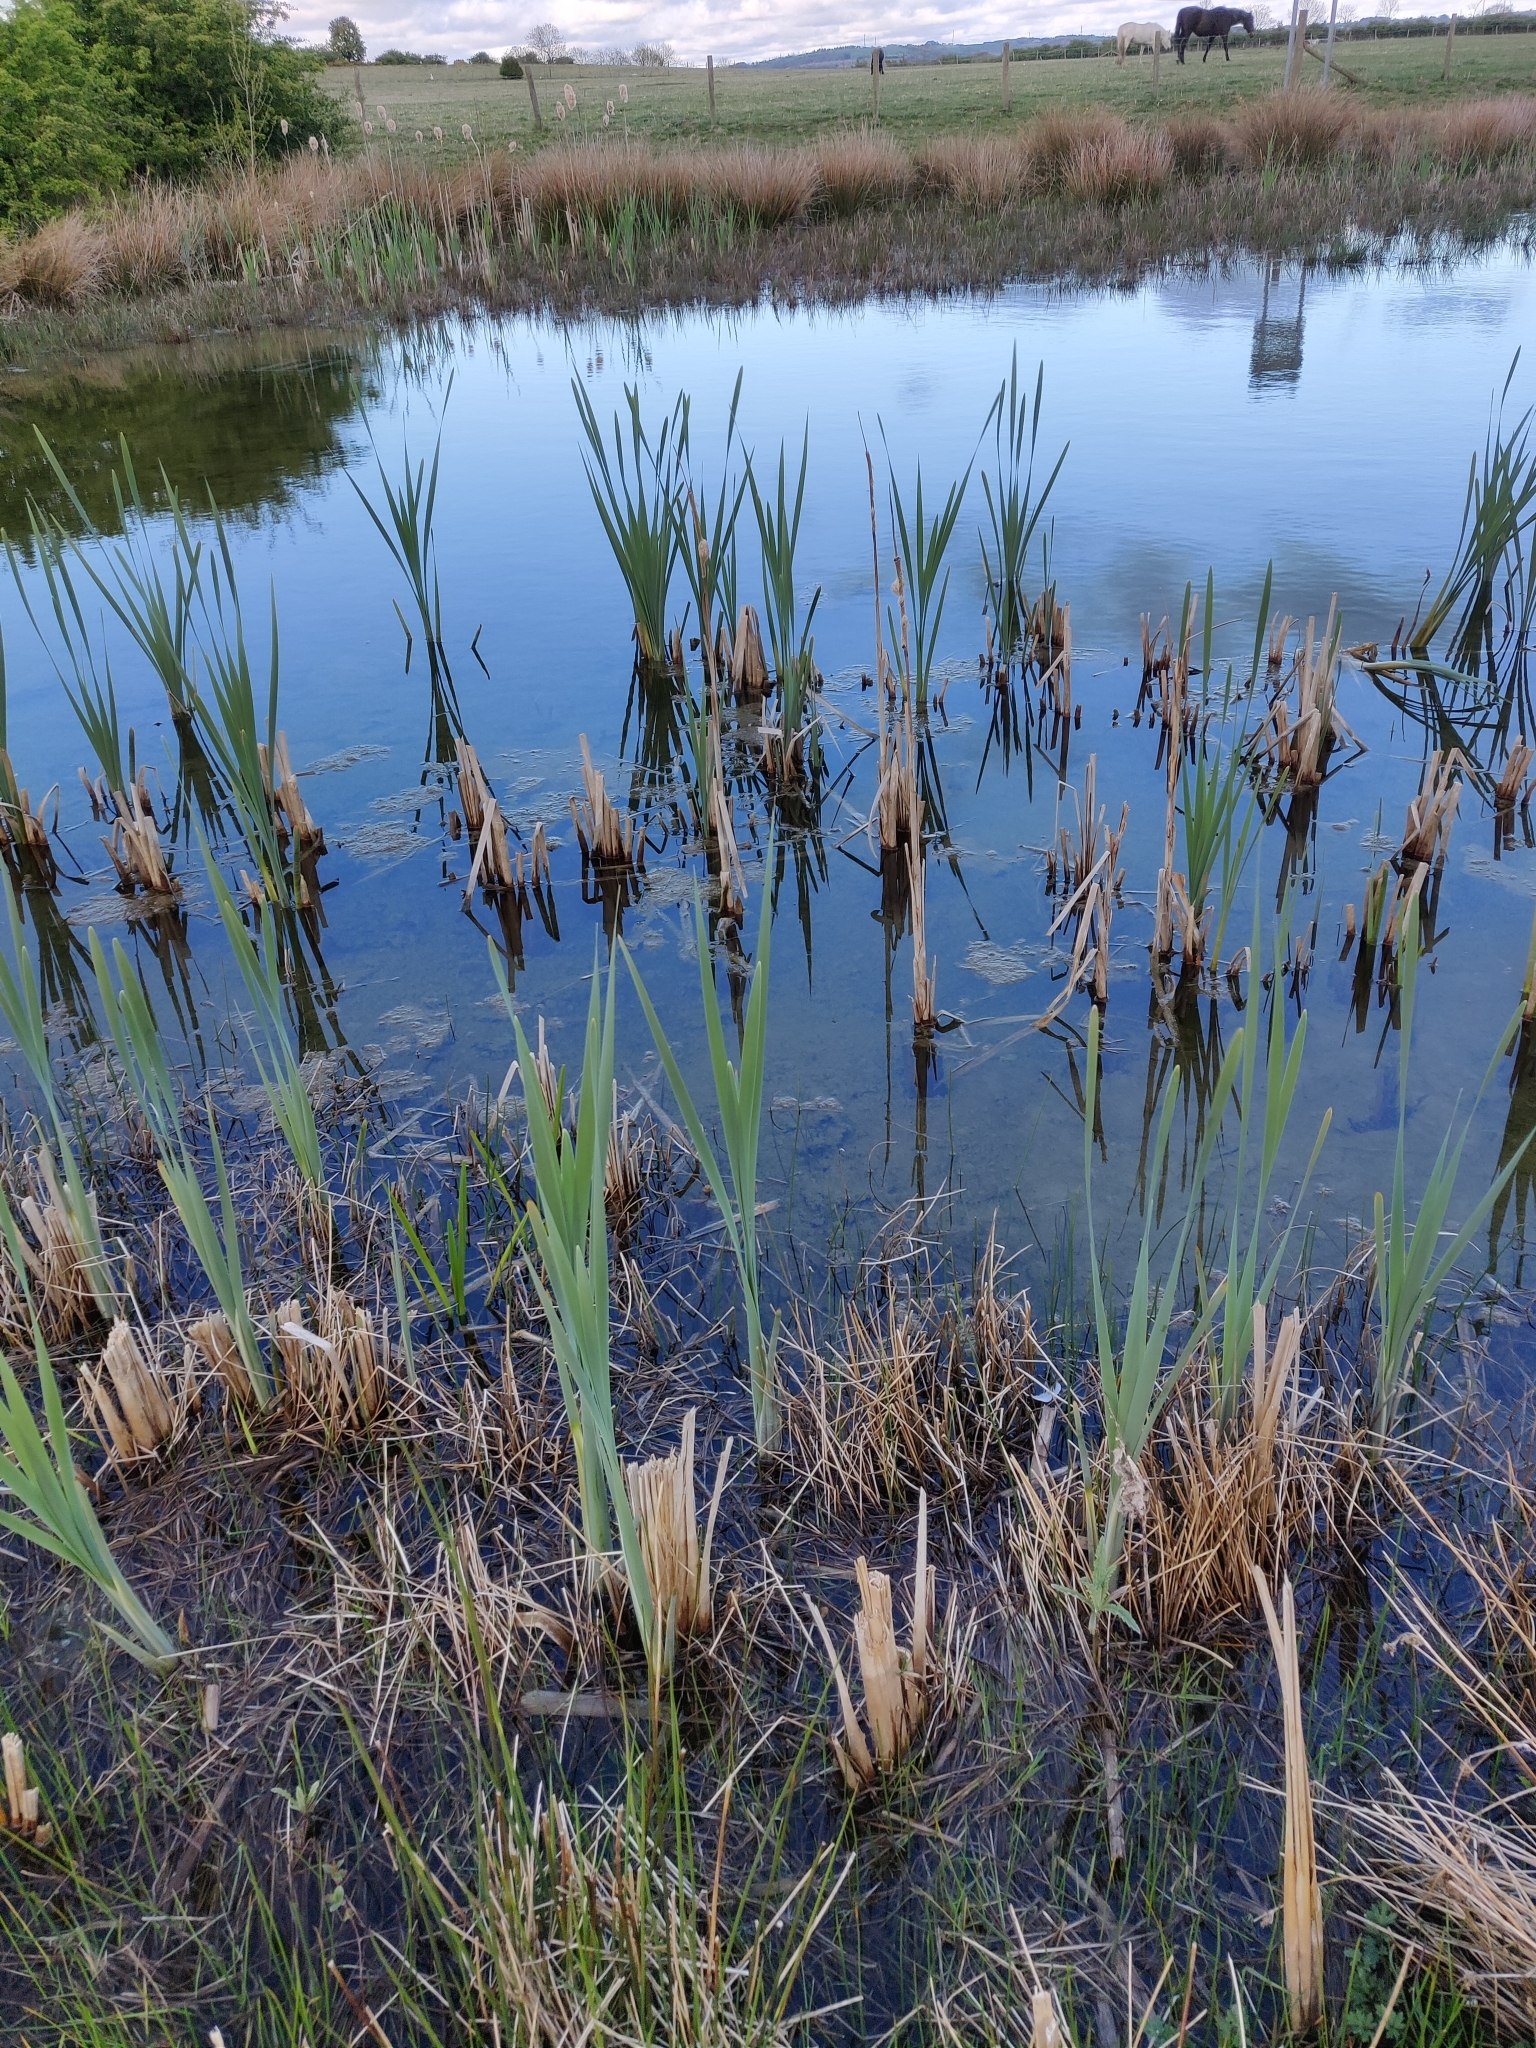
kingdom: Plantae
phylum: Tracheophyta
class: Liliopsida
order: Poales
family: Typhaceae
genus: Typha
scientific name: Typha latifolia
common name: Broadleaf cattail
